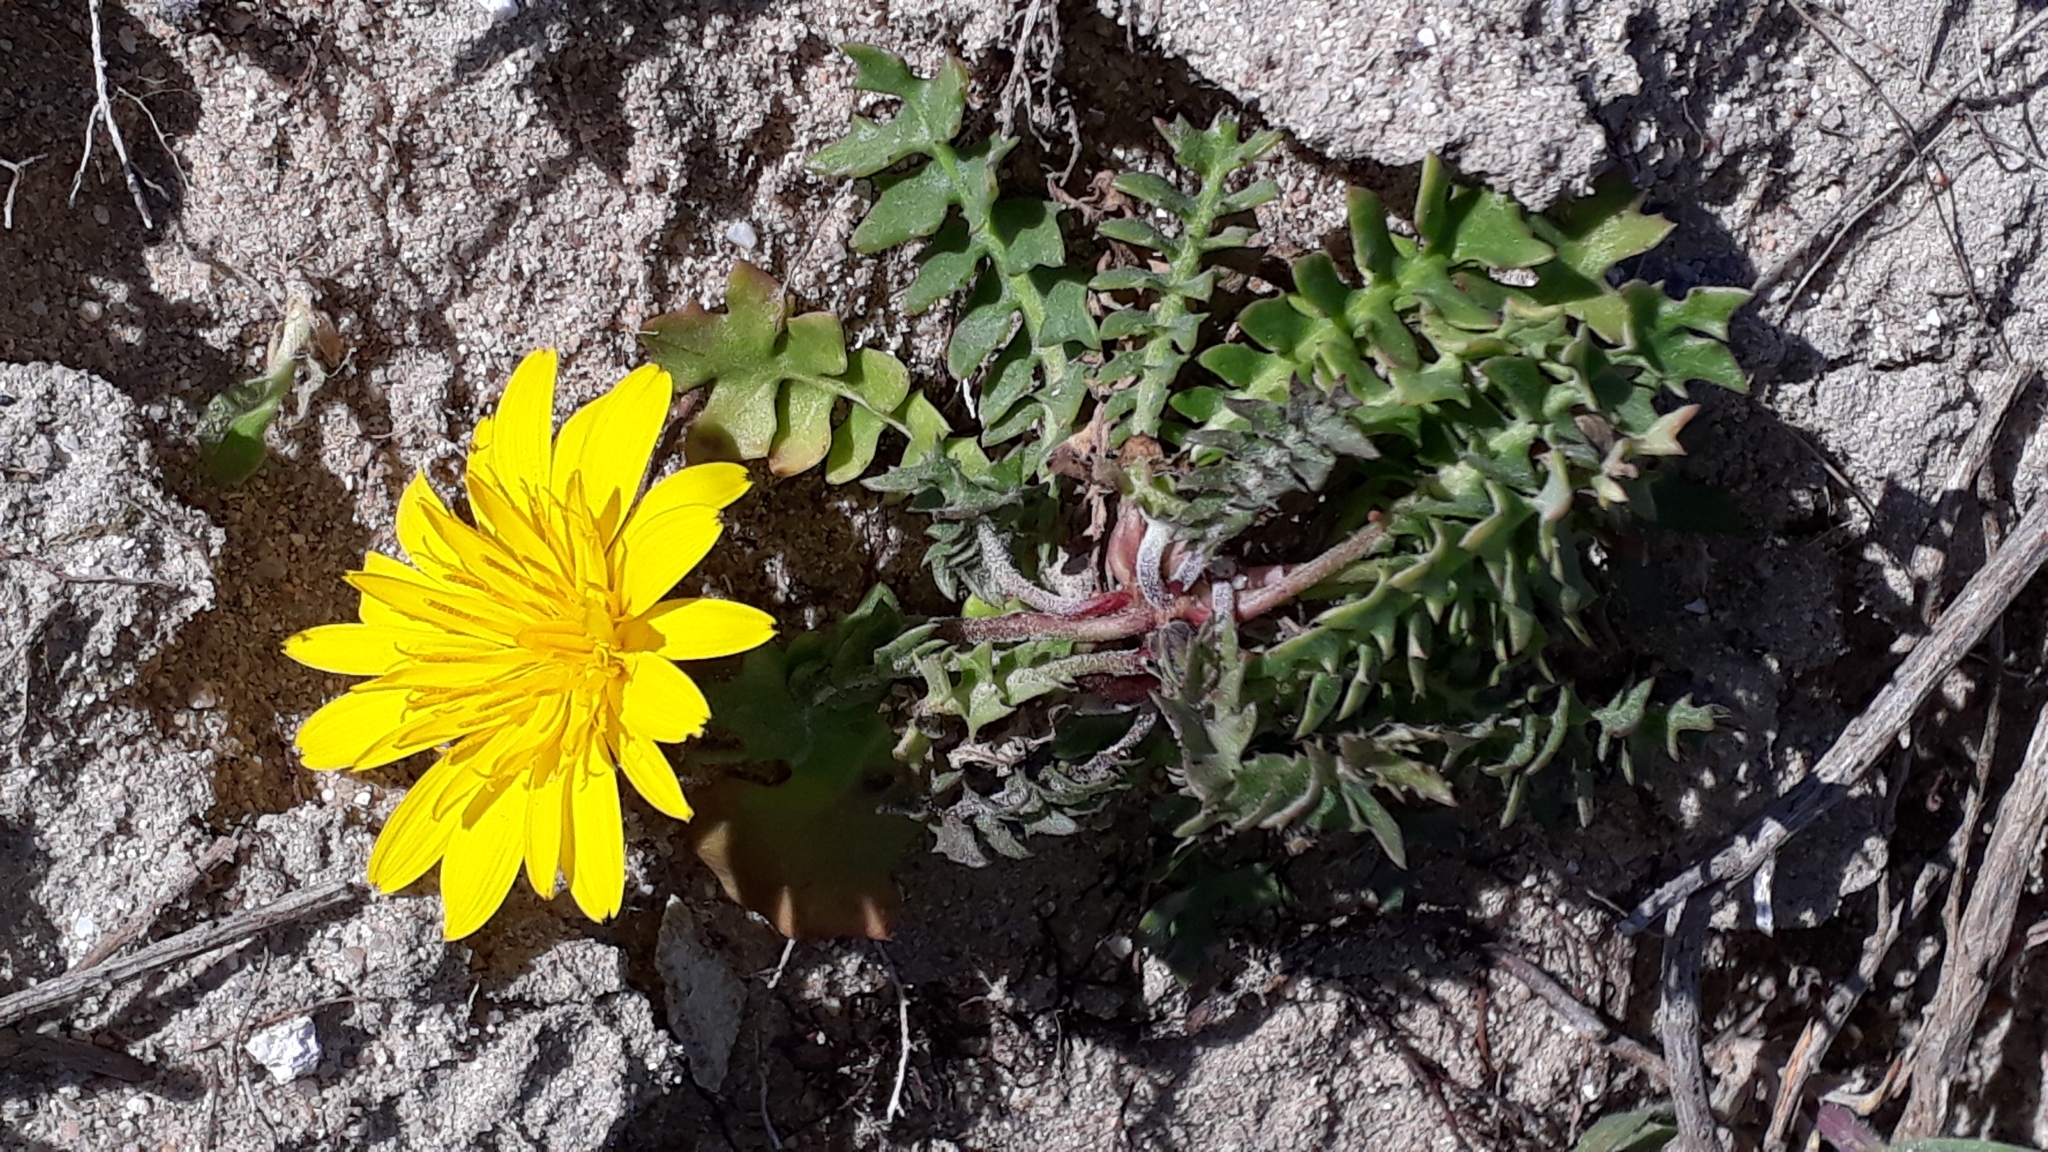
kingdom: Plantae
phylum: Tracheophyta
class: Magnoliopsida
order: Asterales
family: Asteraceae
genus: Hyoseris
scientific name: Hyoseris radiata
